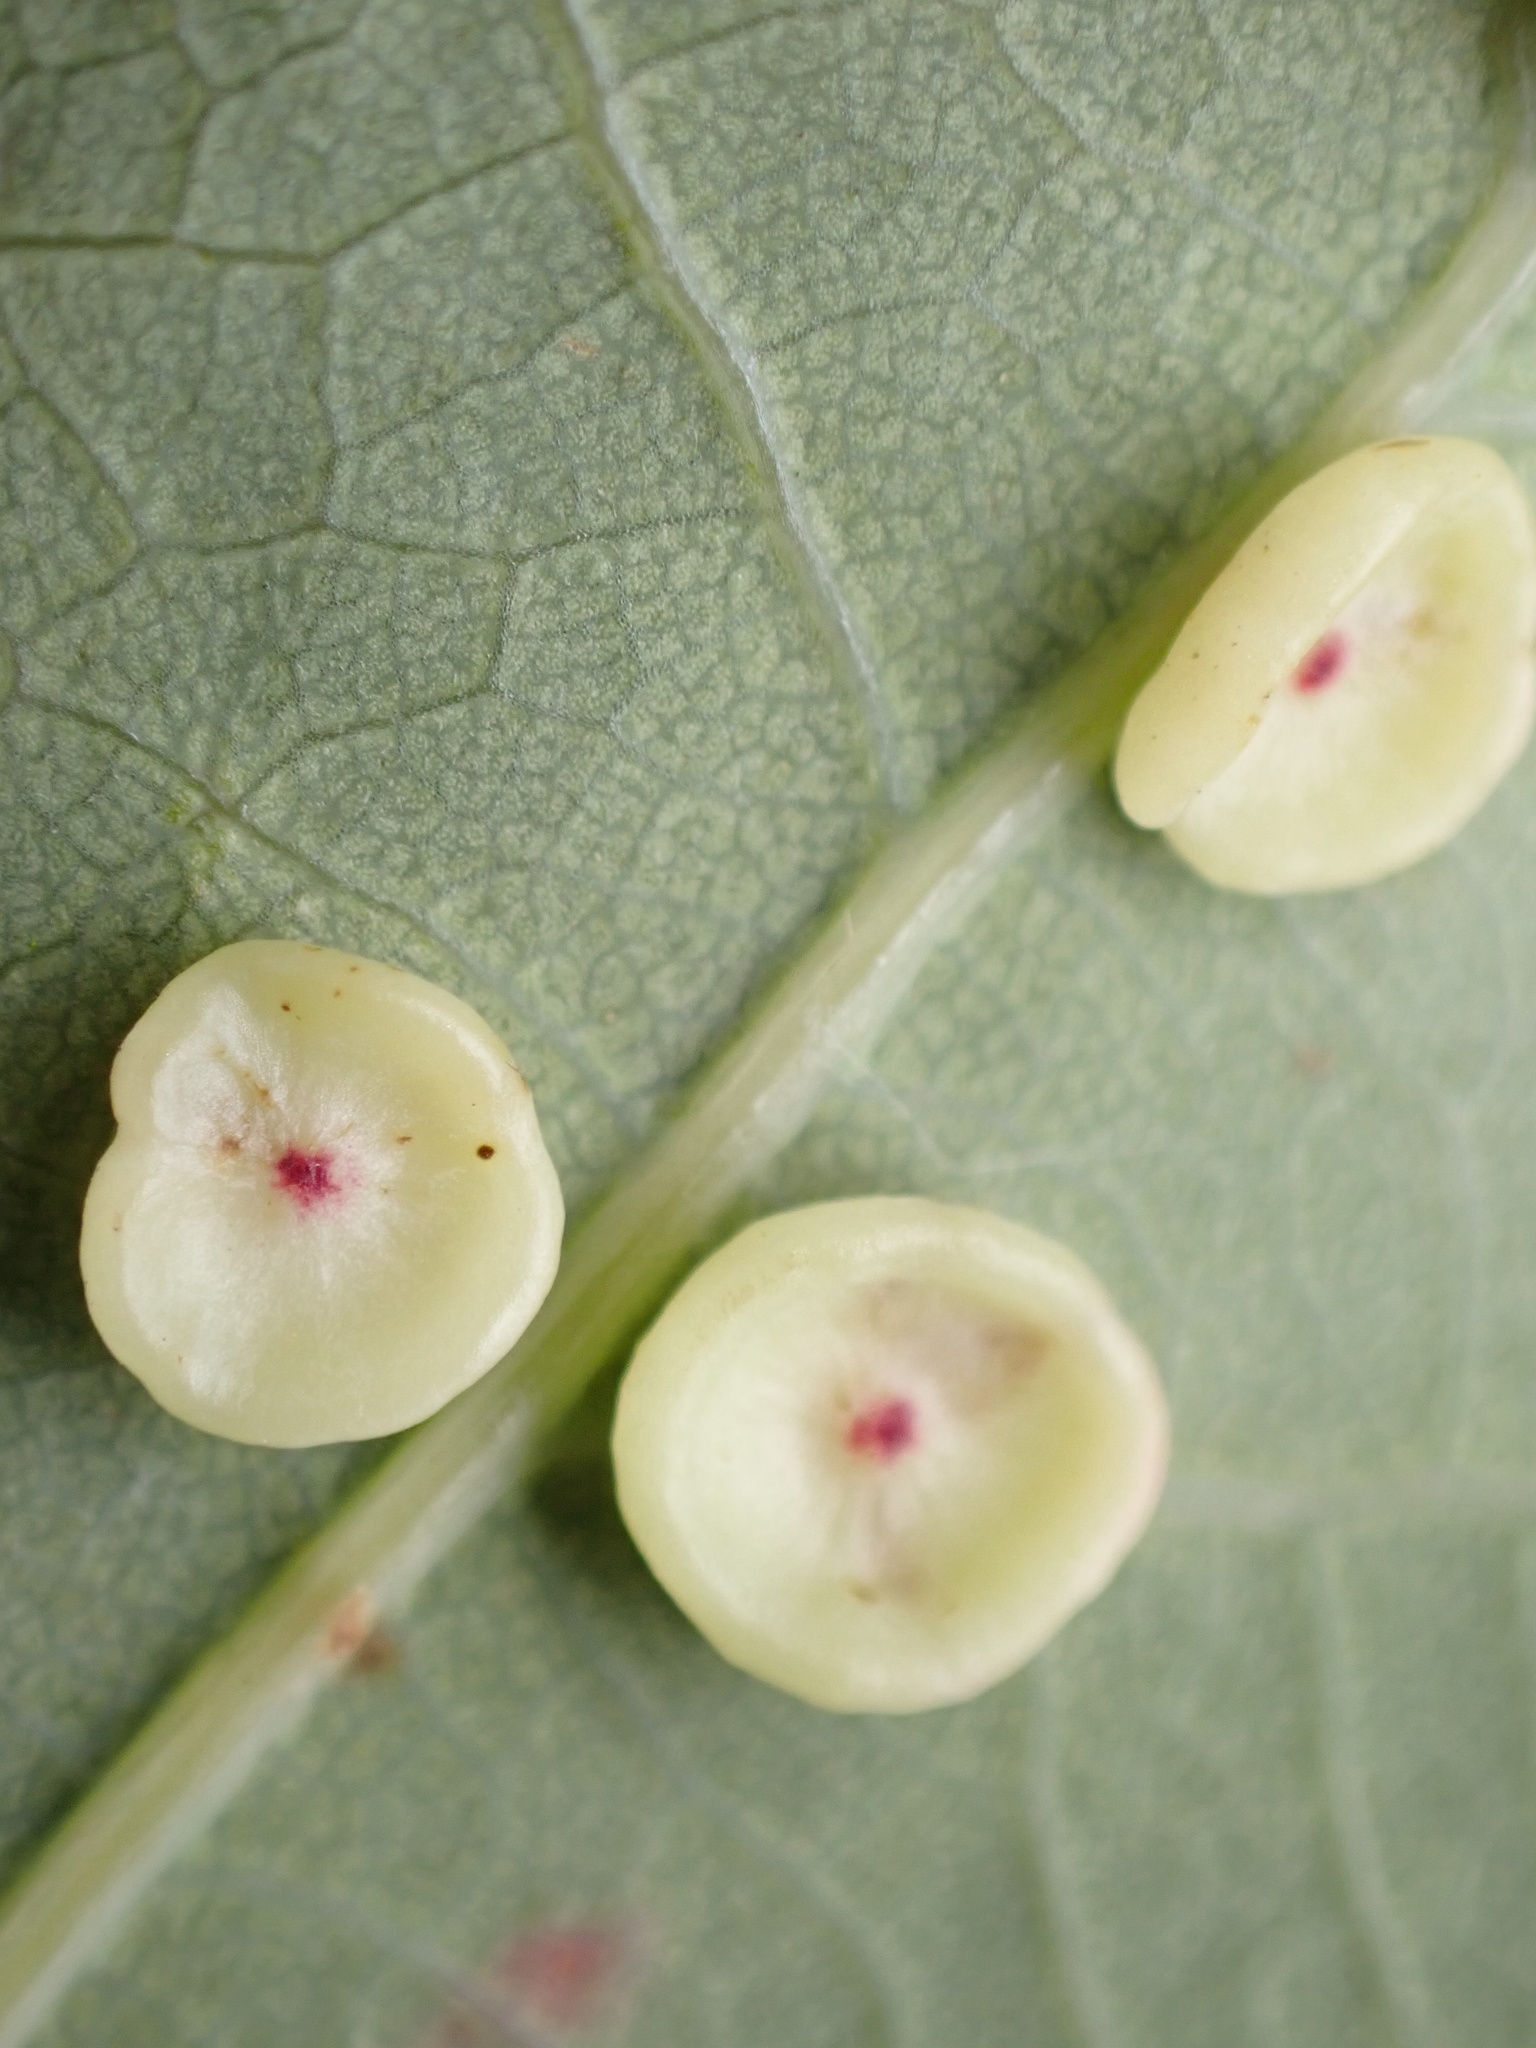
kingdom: Animalia
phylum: Arthropoda
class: Insecta
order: Hymenoptera
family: Cynipidae
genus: Neuroterus
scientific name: Neuroterus albipes
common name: Smooth spangle gall
